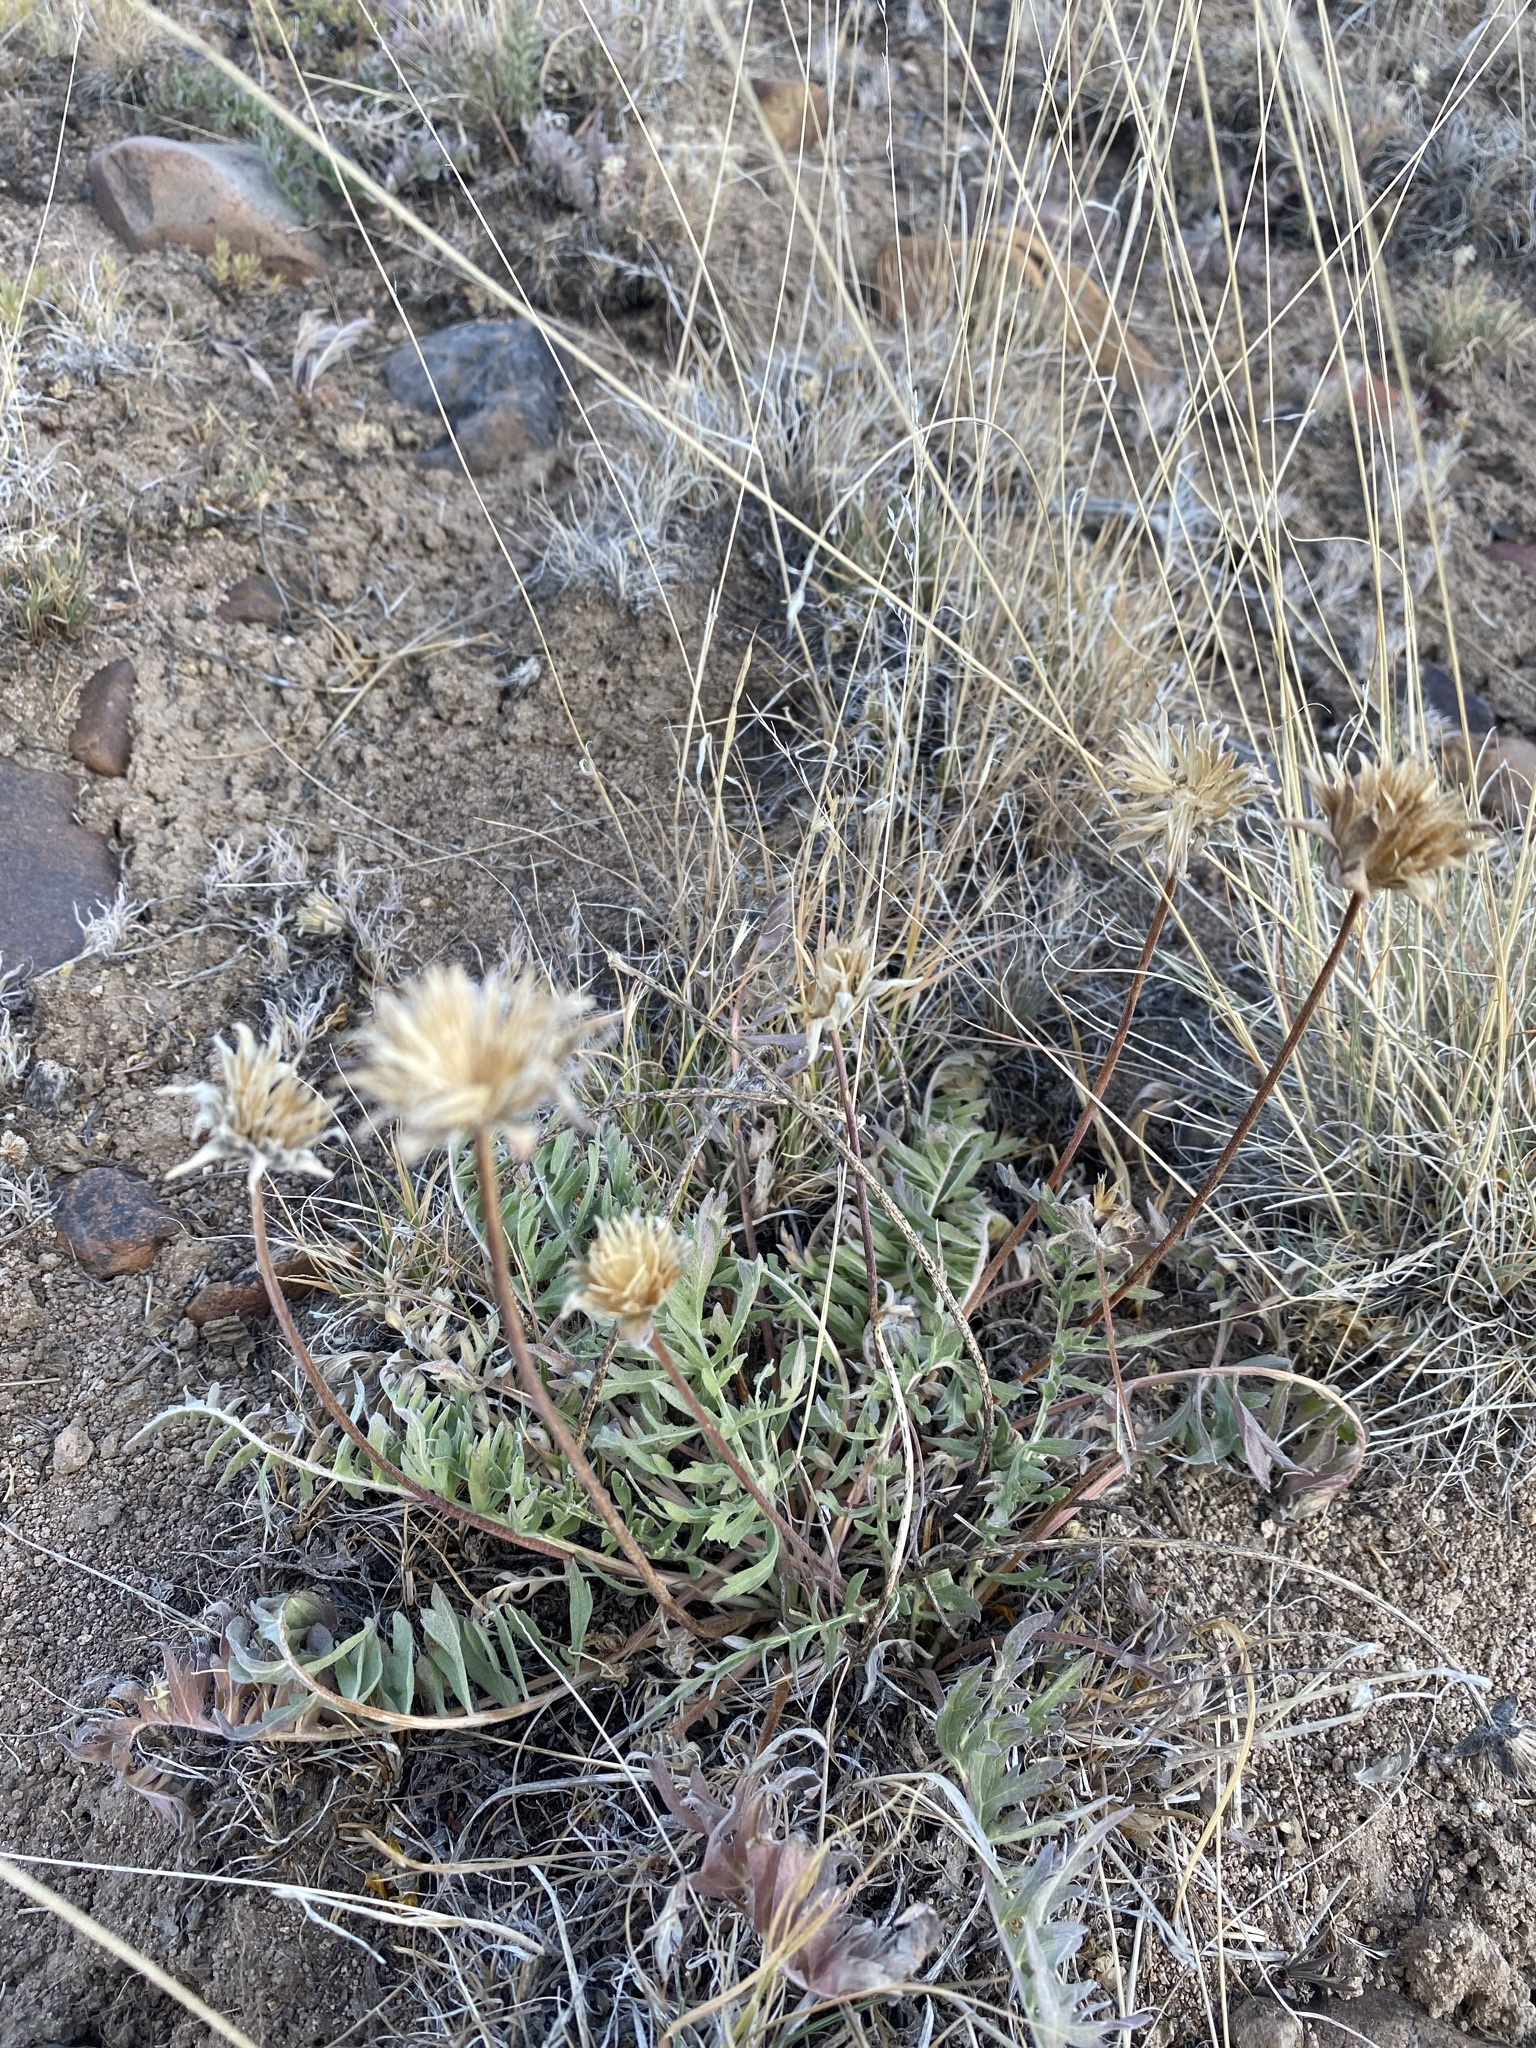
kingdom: Plantae
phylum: Tracheophyta
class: Magnoliopsida
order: Asterales
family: Asteraceae
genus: Balsamorhiza
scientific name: Balsamorhiza hookeri
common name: Hooker's balsamroot
